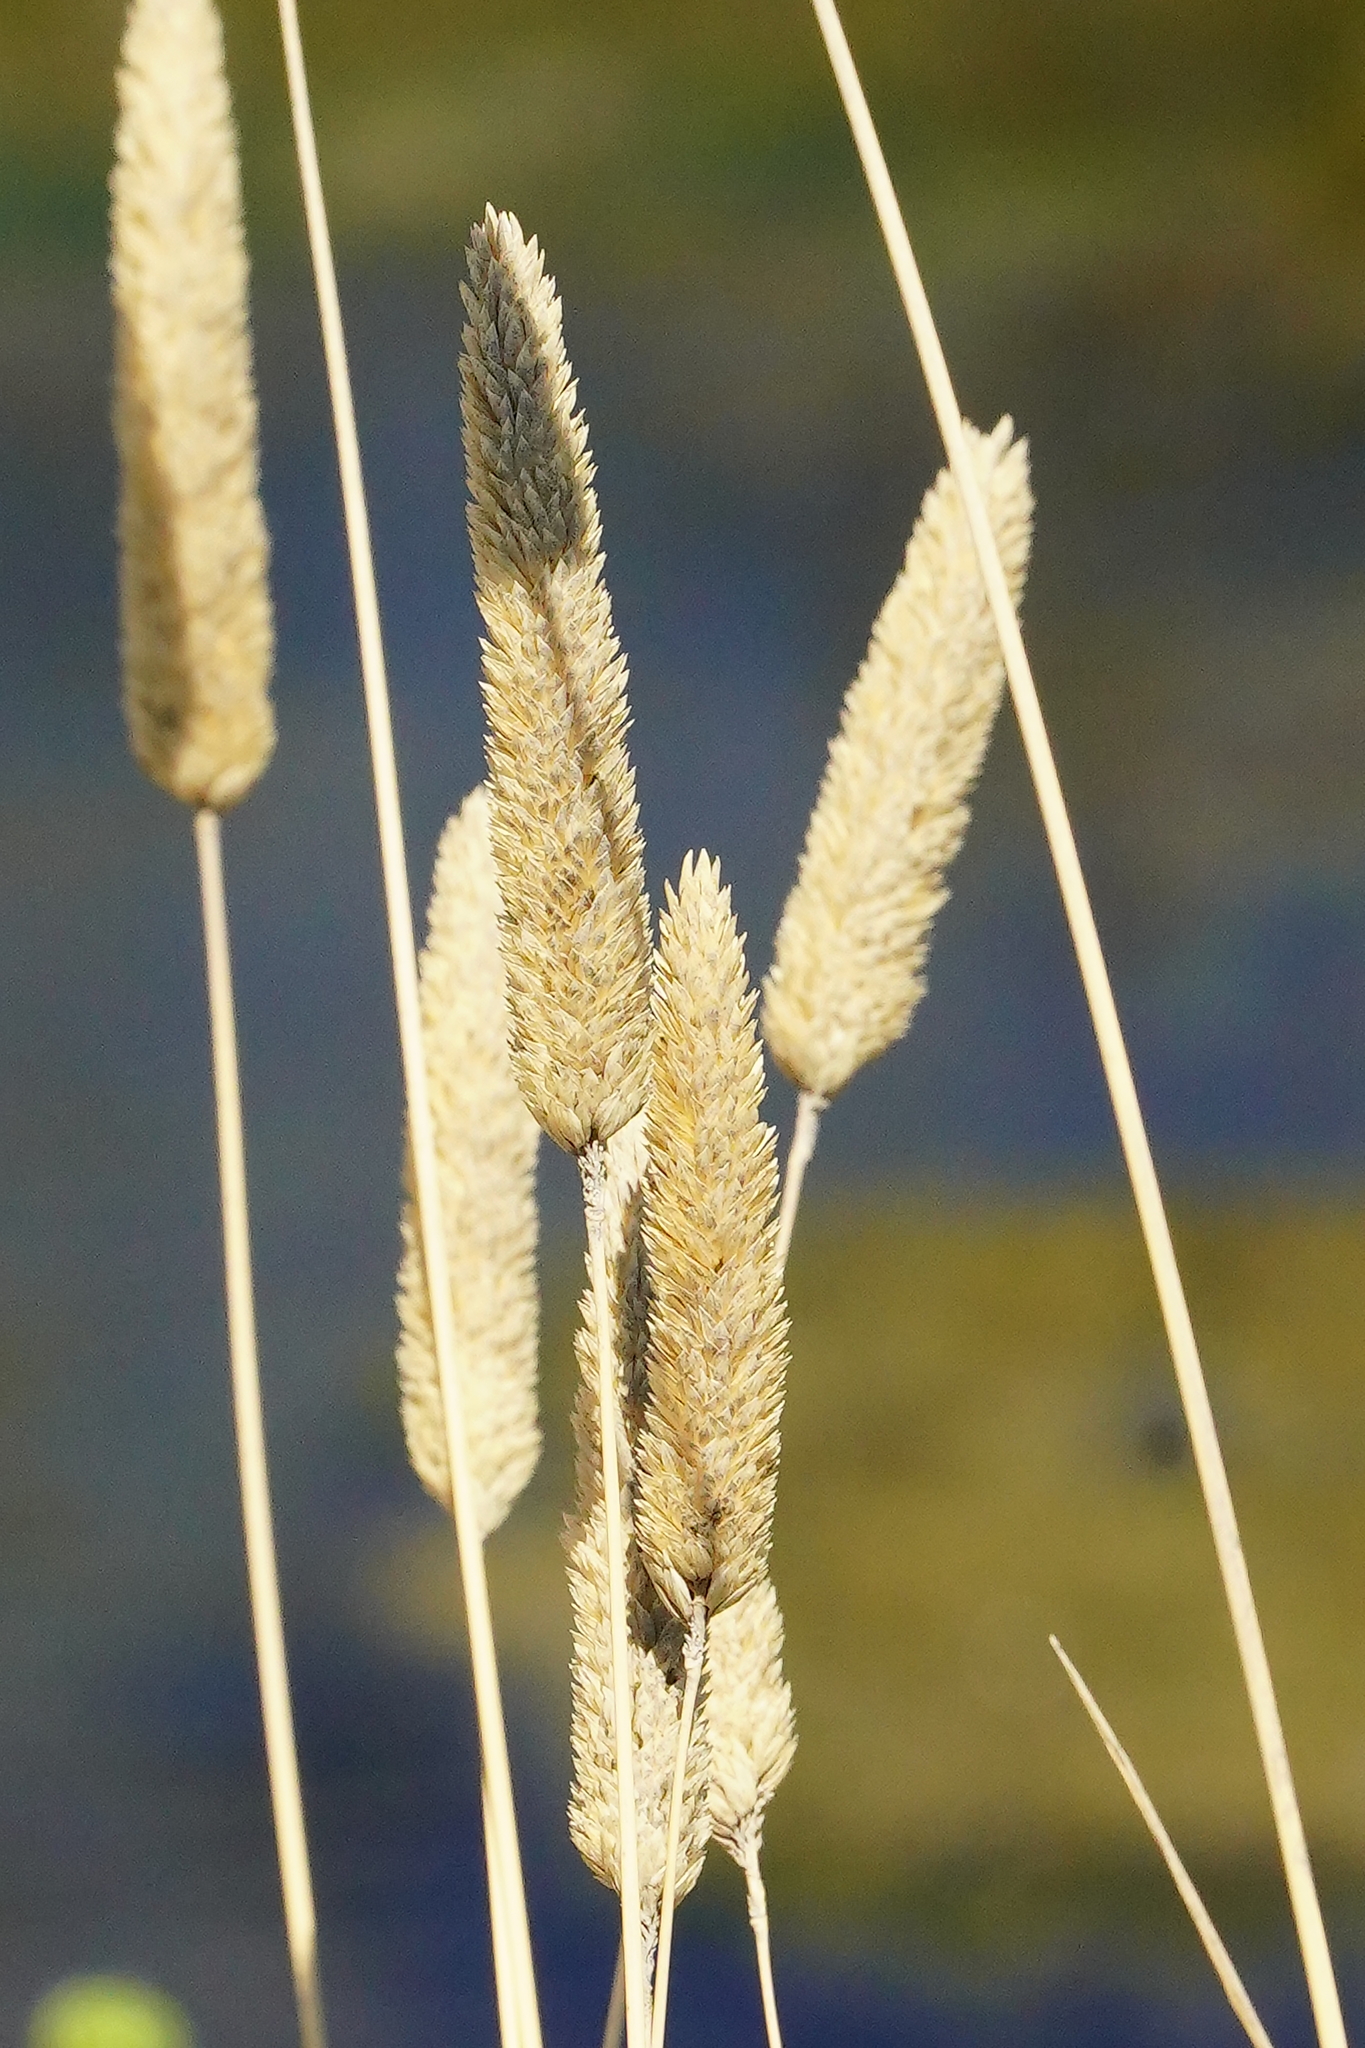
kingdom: Plantae
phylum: Tracheophyta
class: Liliopsida
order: Poales
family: Poaceae
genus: Phalaris
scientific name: Phalaris aquatica
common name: Bulbous canary-grass
